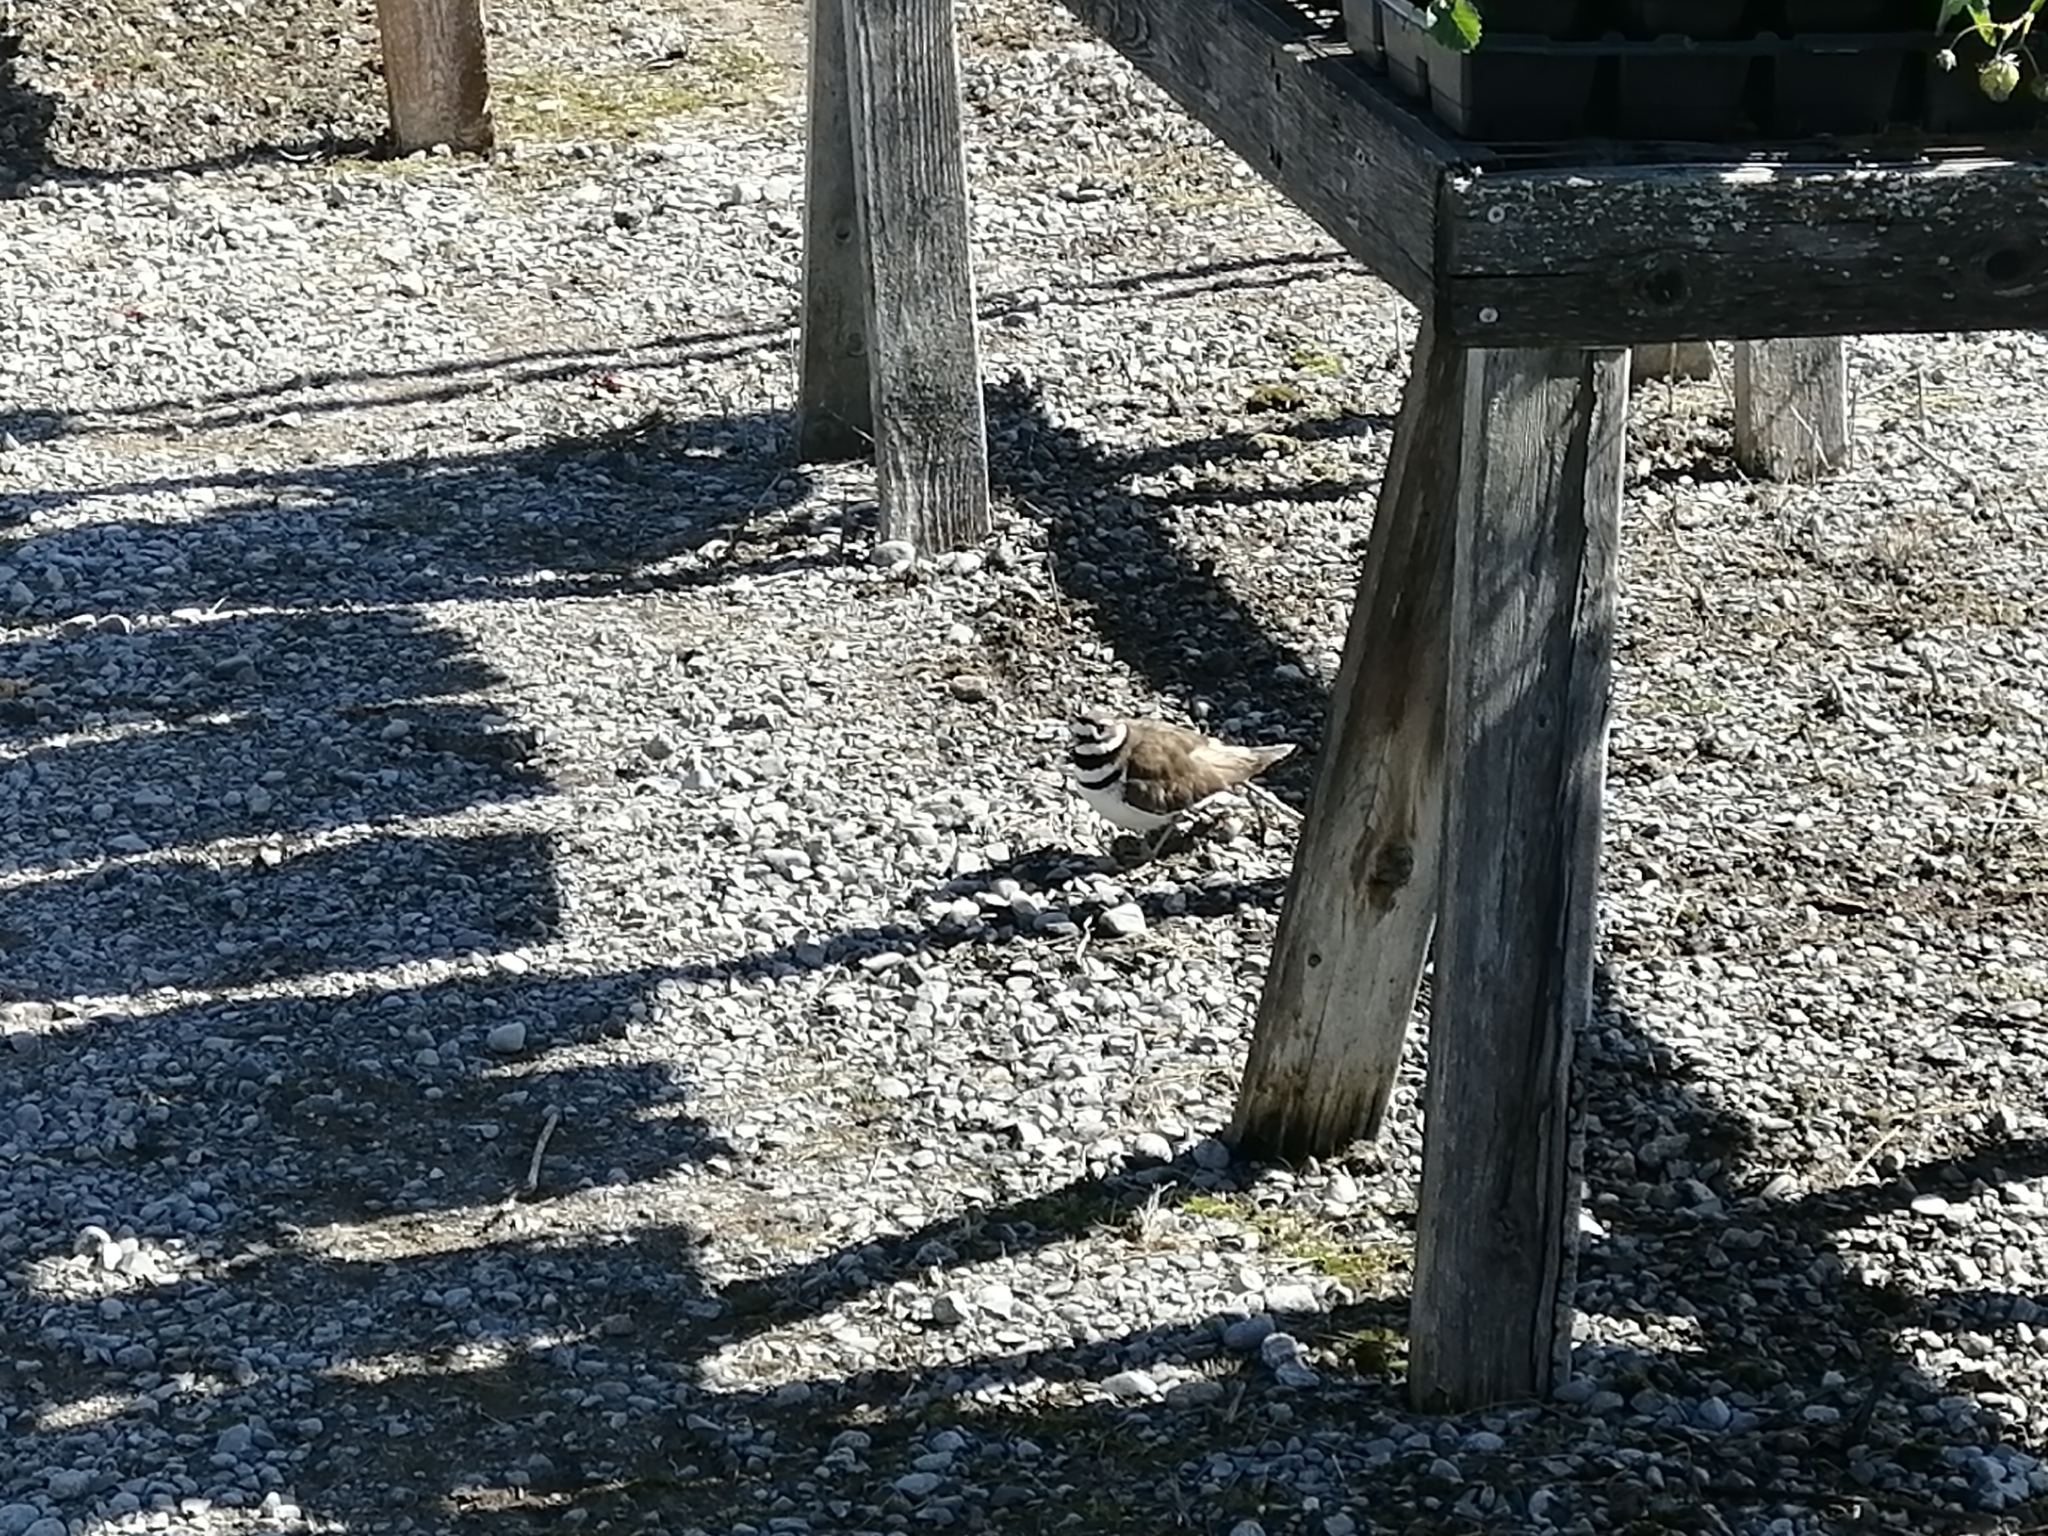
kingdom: Animalia
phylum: Chordata
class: Aves
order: Charadriiformes
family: Charadriidae
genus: Charadrius
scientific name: Charadrius vociferus
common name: Killdeer
